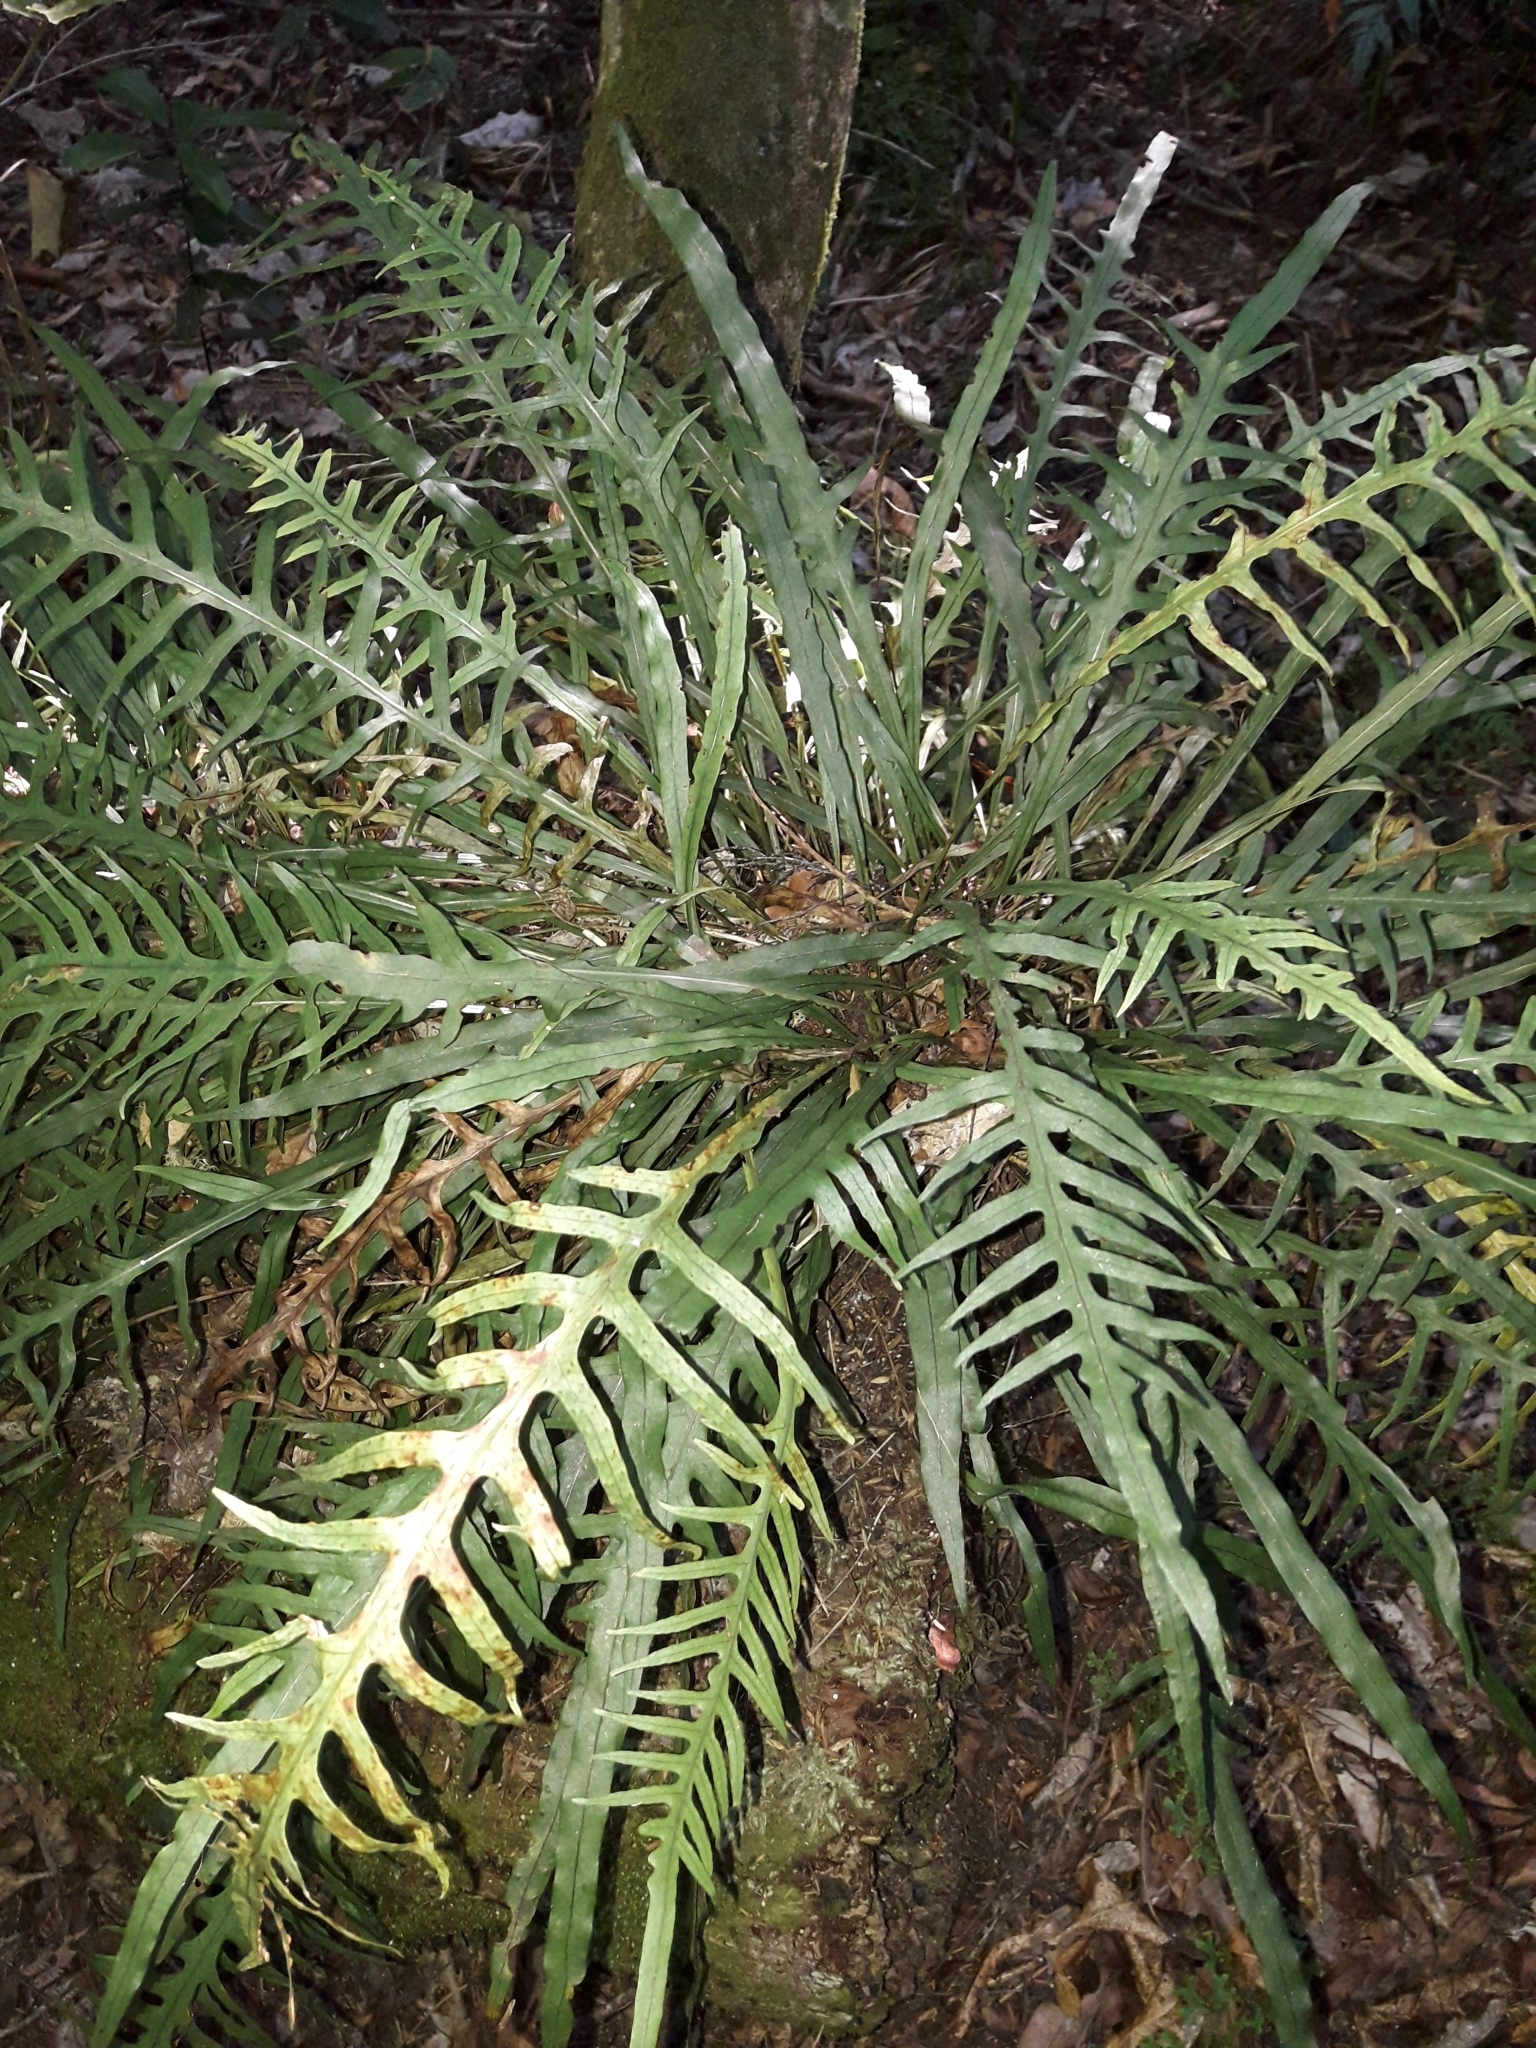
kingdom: Plantae
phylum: Tracheophyta
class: Polypodiopsida
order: Polypodiales
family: Polypodiaceae
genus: Lecanopteris
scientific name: Lecanopteris scandens
